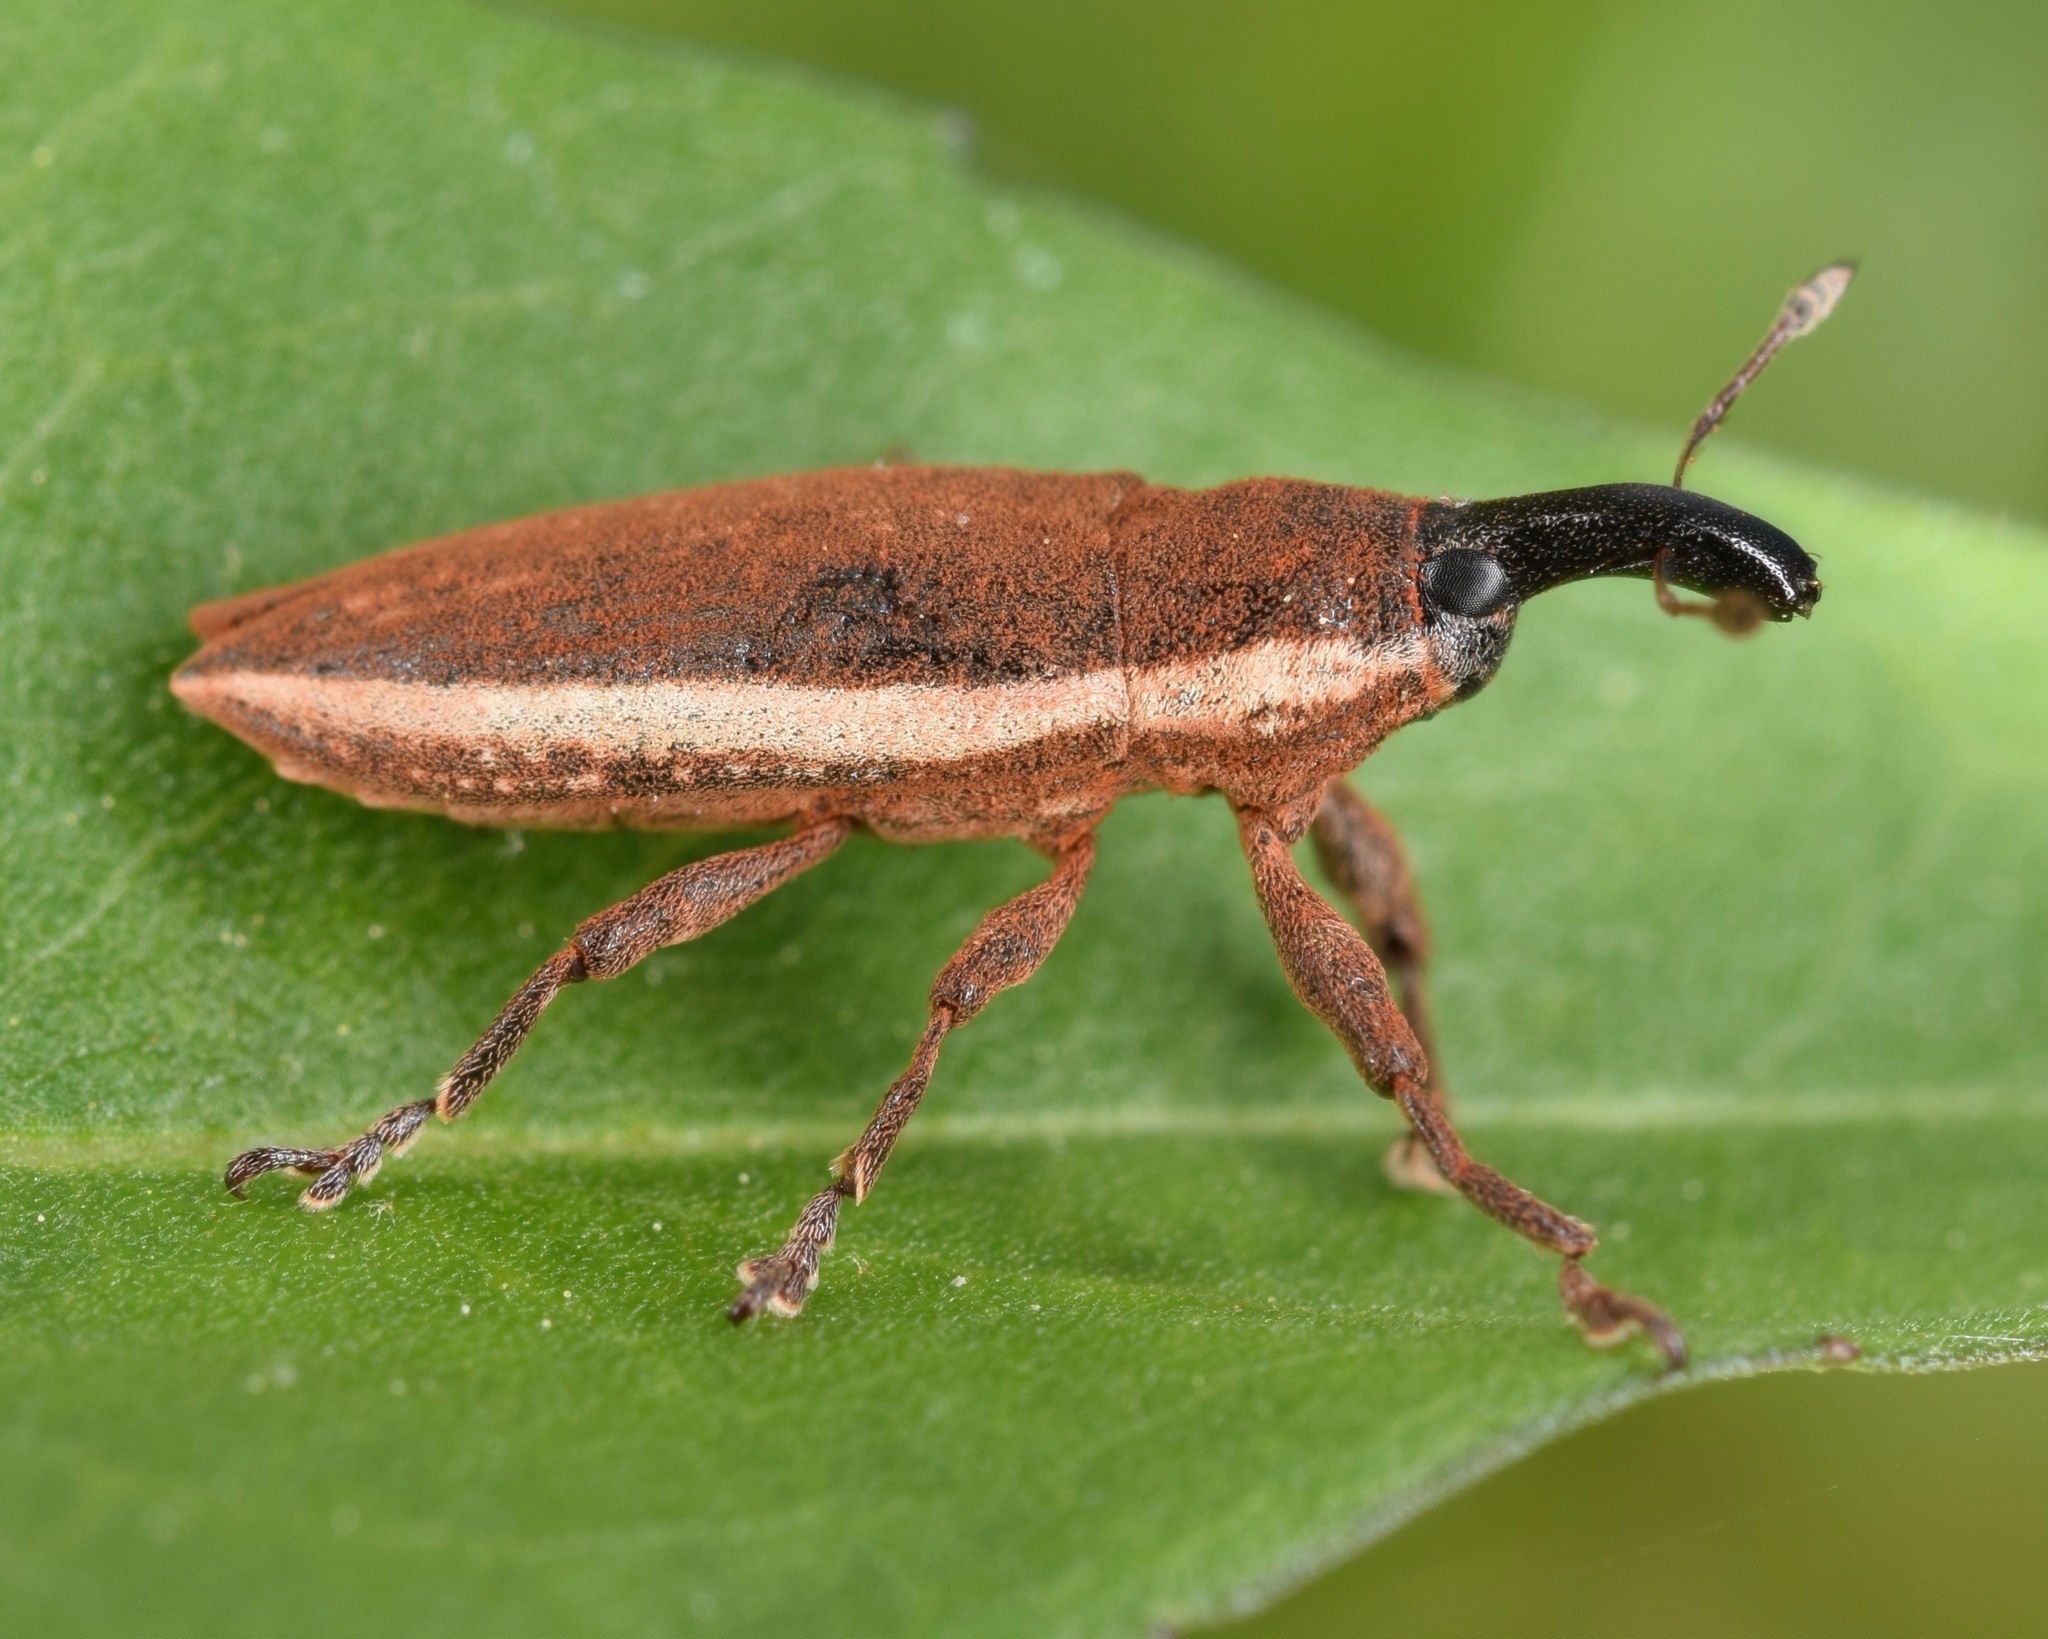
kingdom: Animalia
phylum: Arthropoda
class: Insecta
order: Coleoptera
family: Curculionidae
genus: Lixus
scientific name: Lixus amplexus
